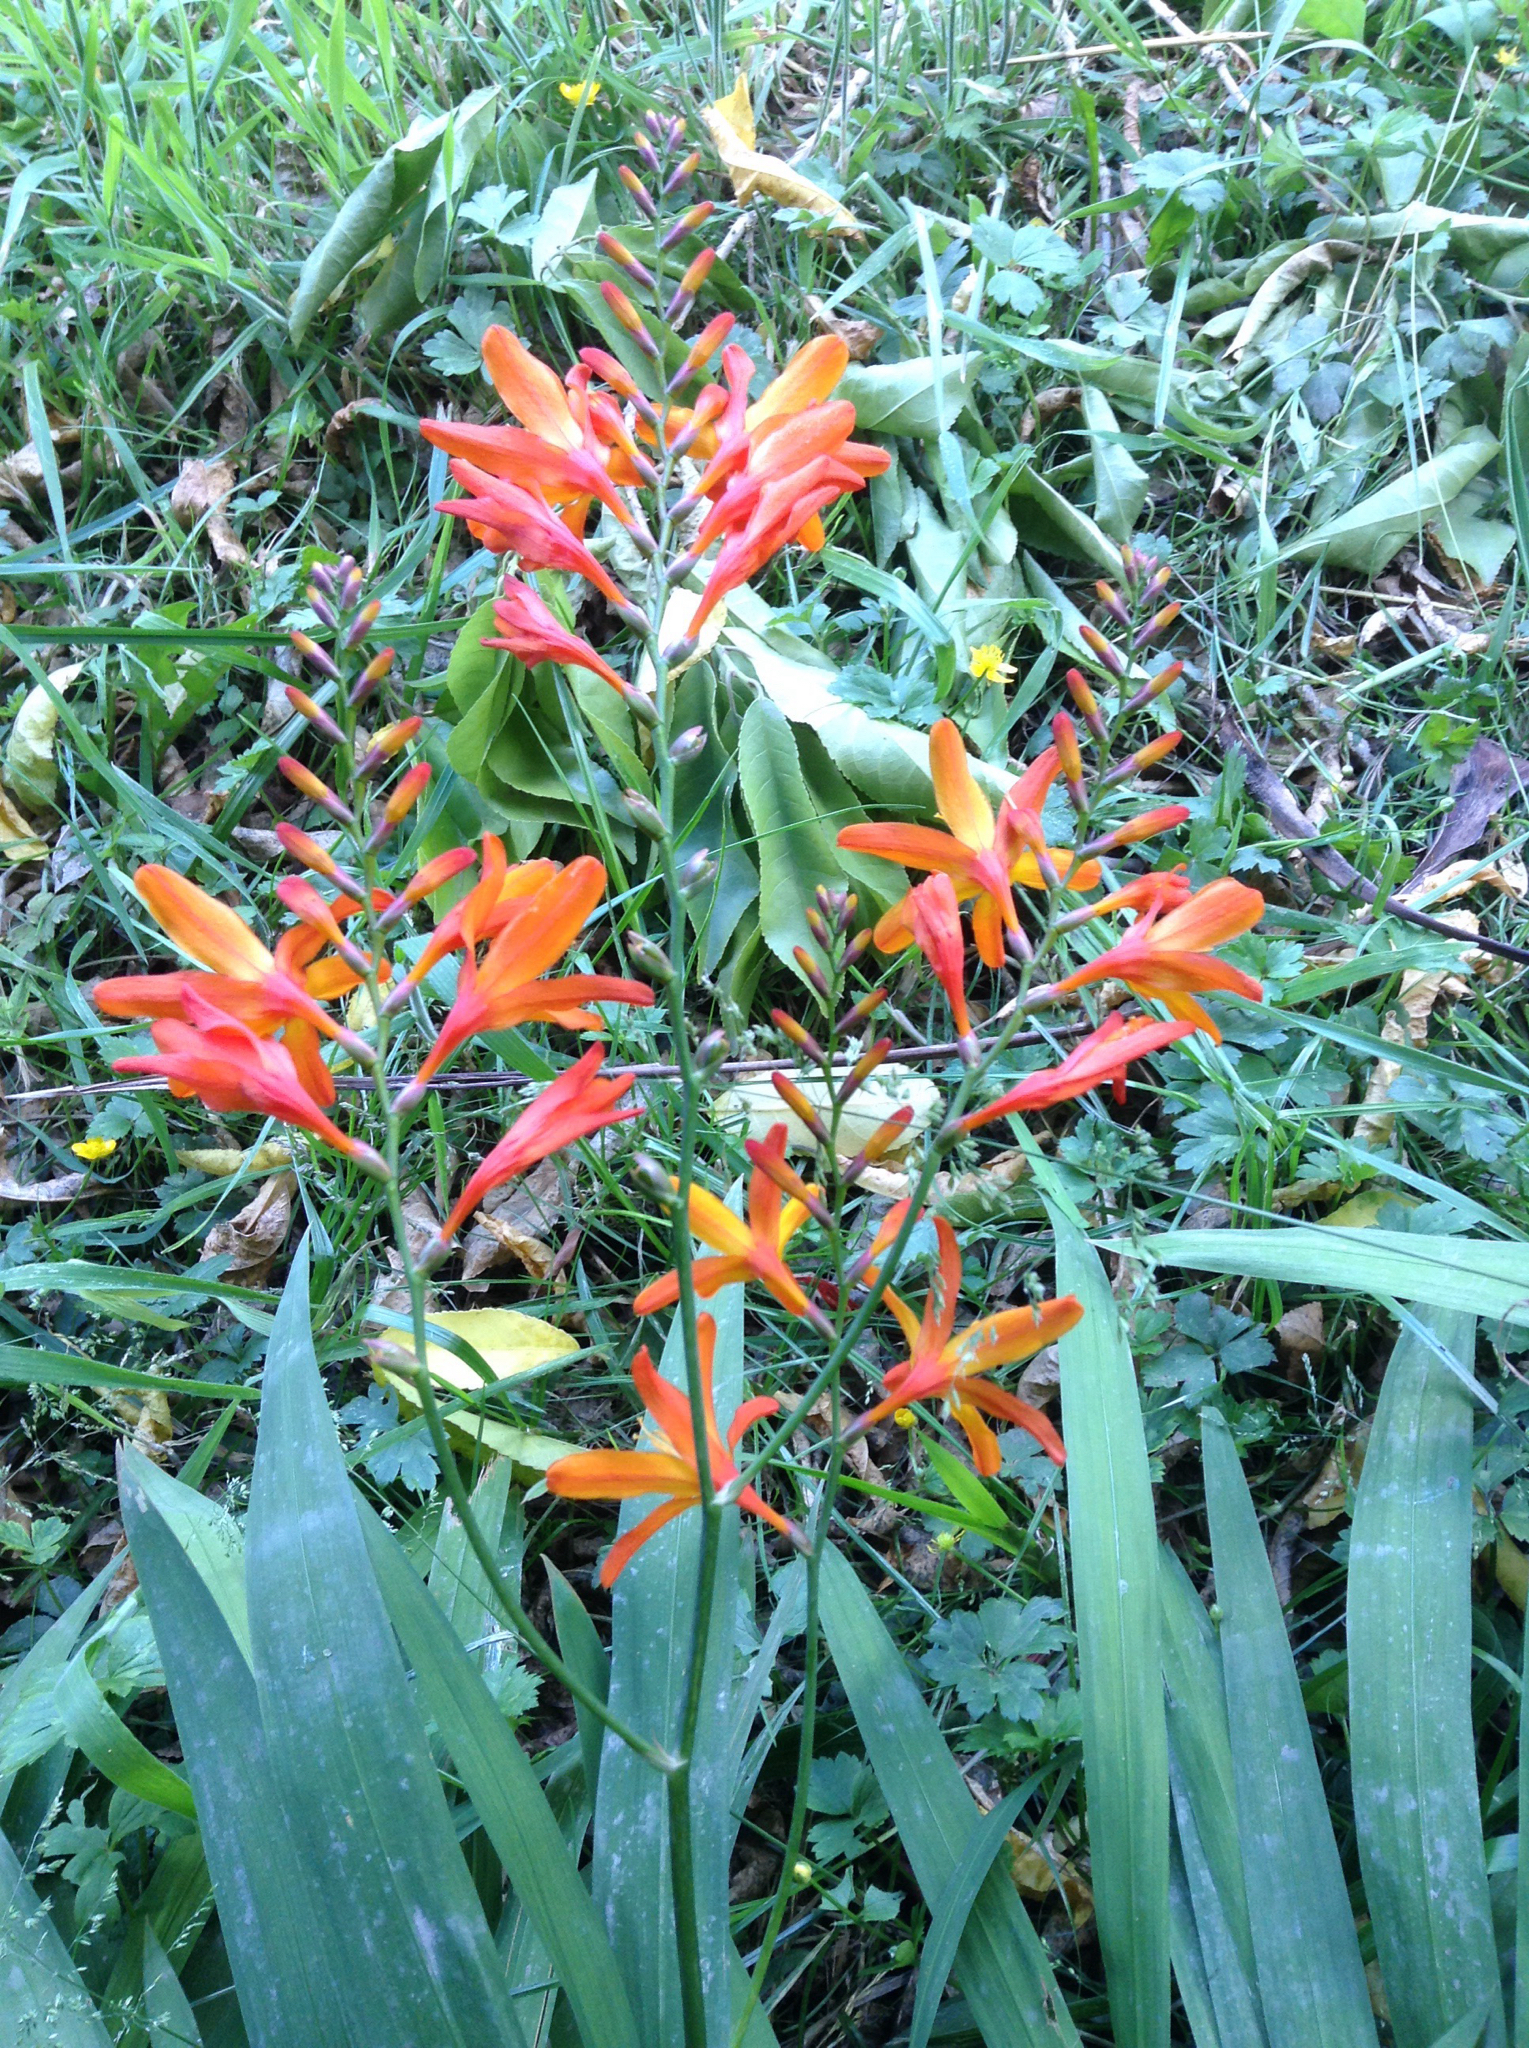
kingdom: Plantae
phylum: Tracheophyta
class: Liliopsida
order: Asparagales
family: Iridaceae
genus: Crocosmia
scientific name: Crocosmia crocosmiiflora
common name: Montbretia
